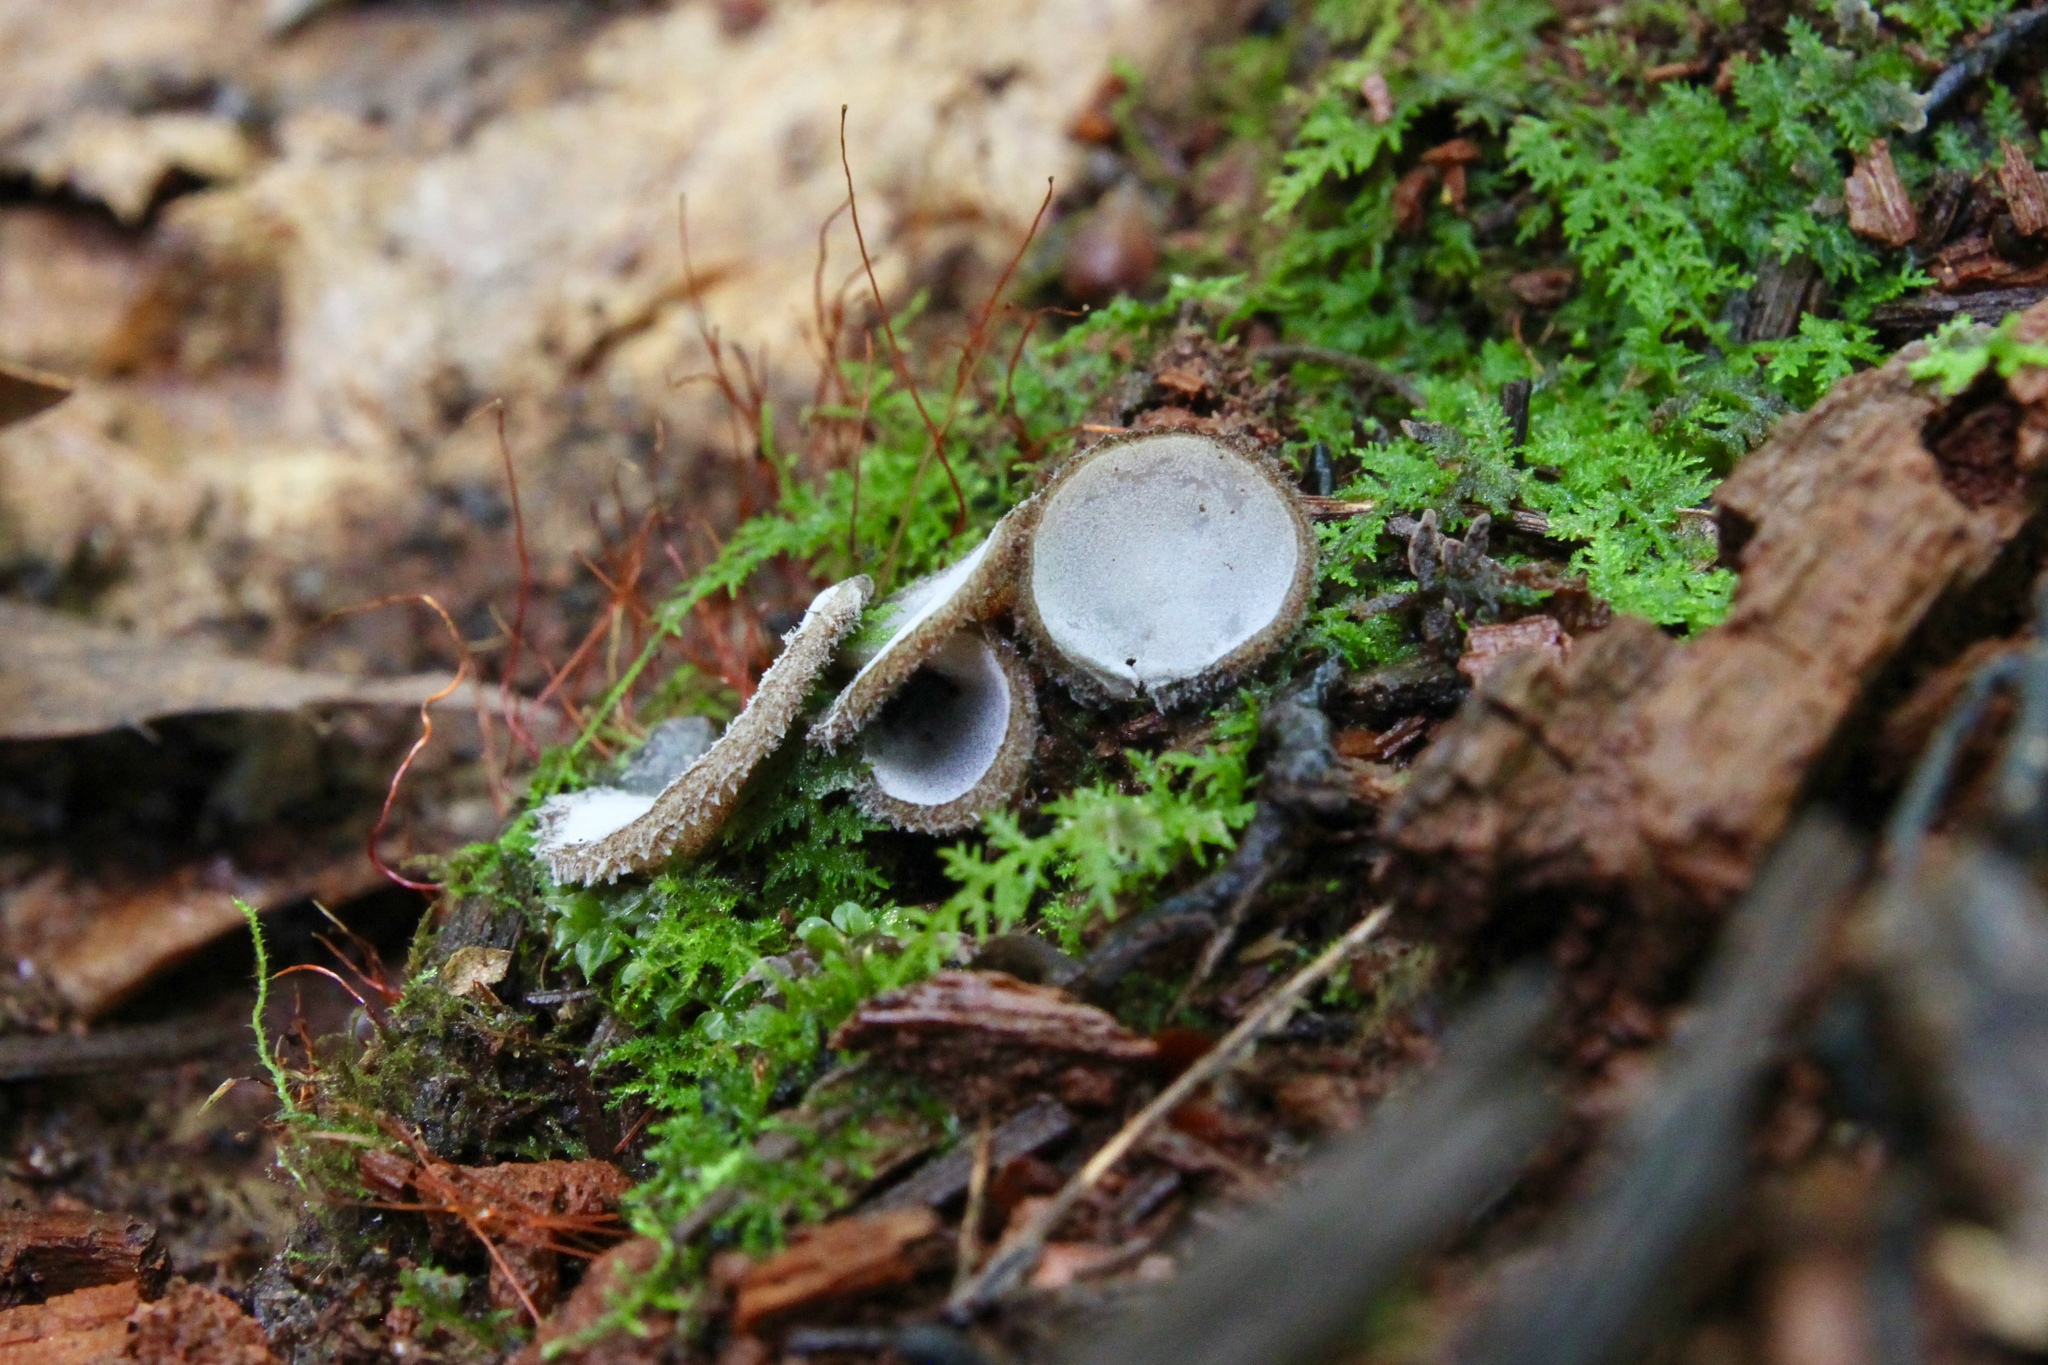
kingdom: Fungi
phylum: Ascomycota
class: Pezizomycetes
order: Pezizales
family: Pyronemataceae
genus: Humaria
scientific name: Humaria hemisphaerica
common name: Glazed cup
